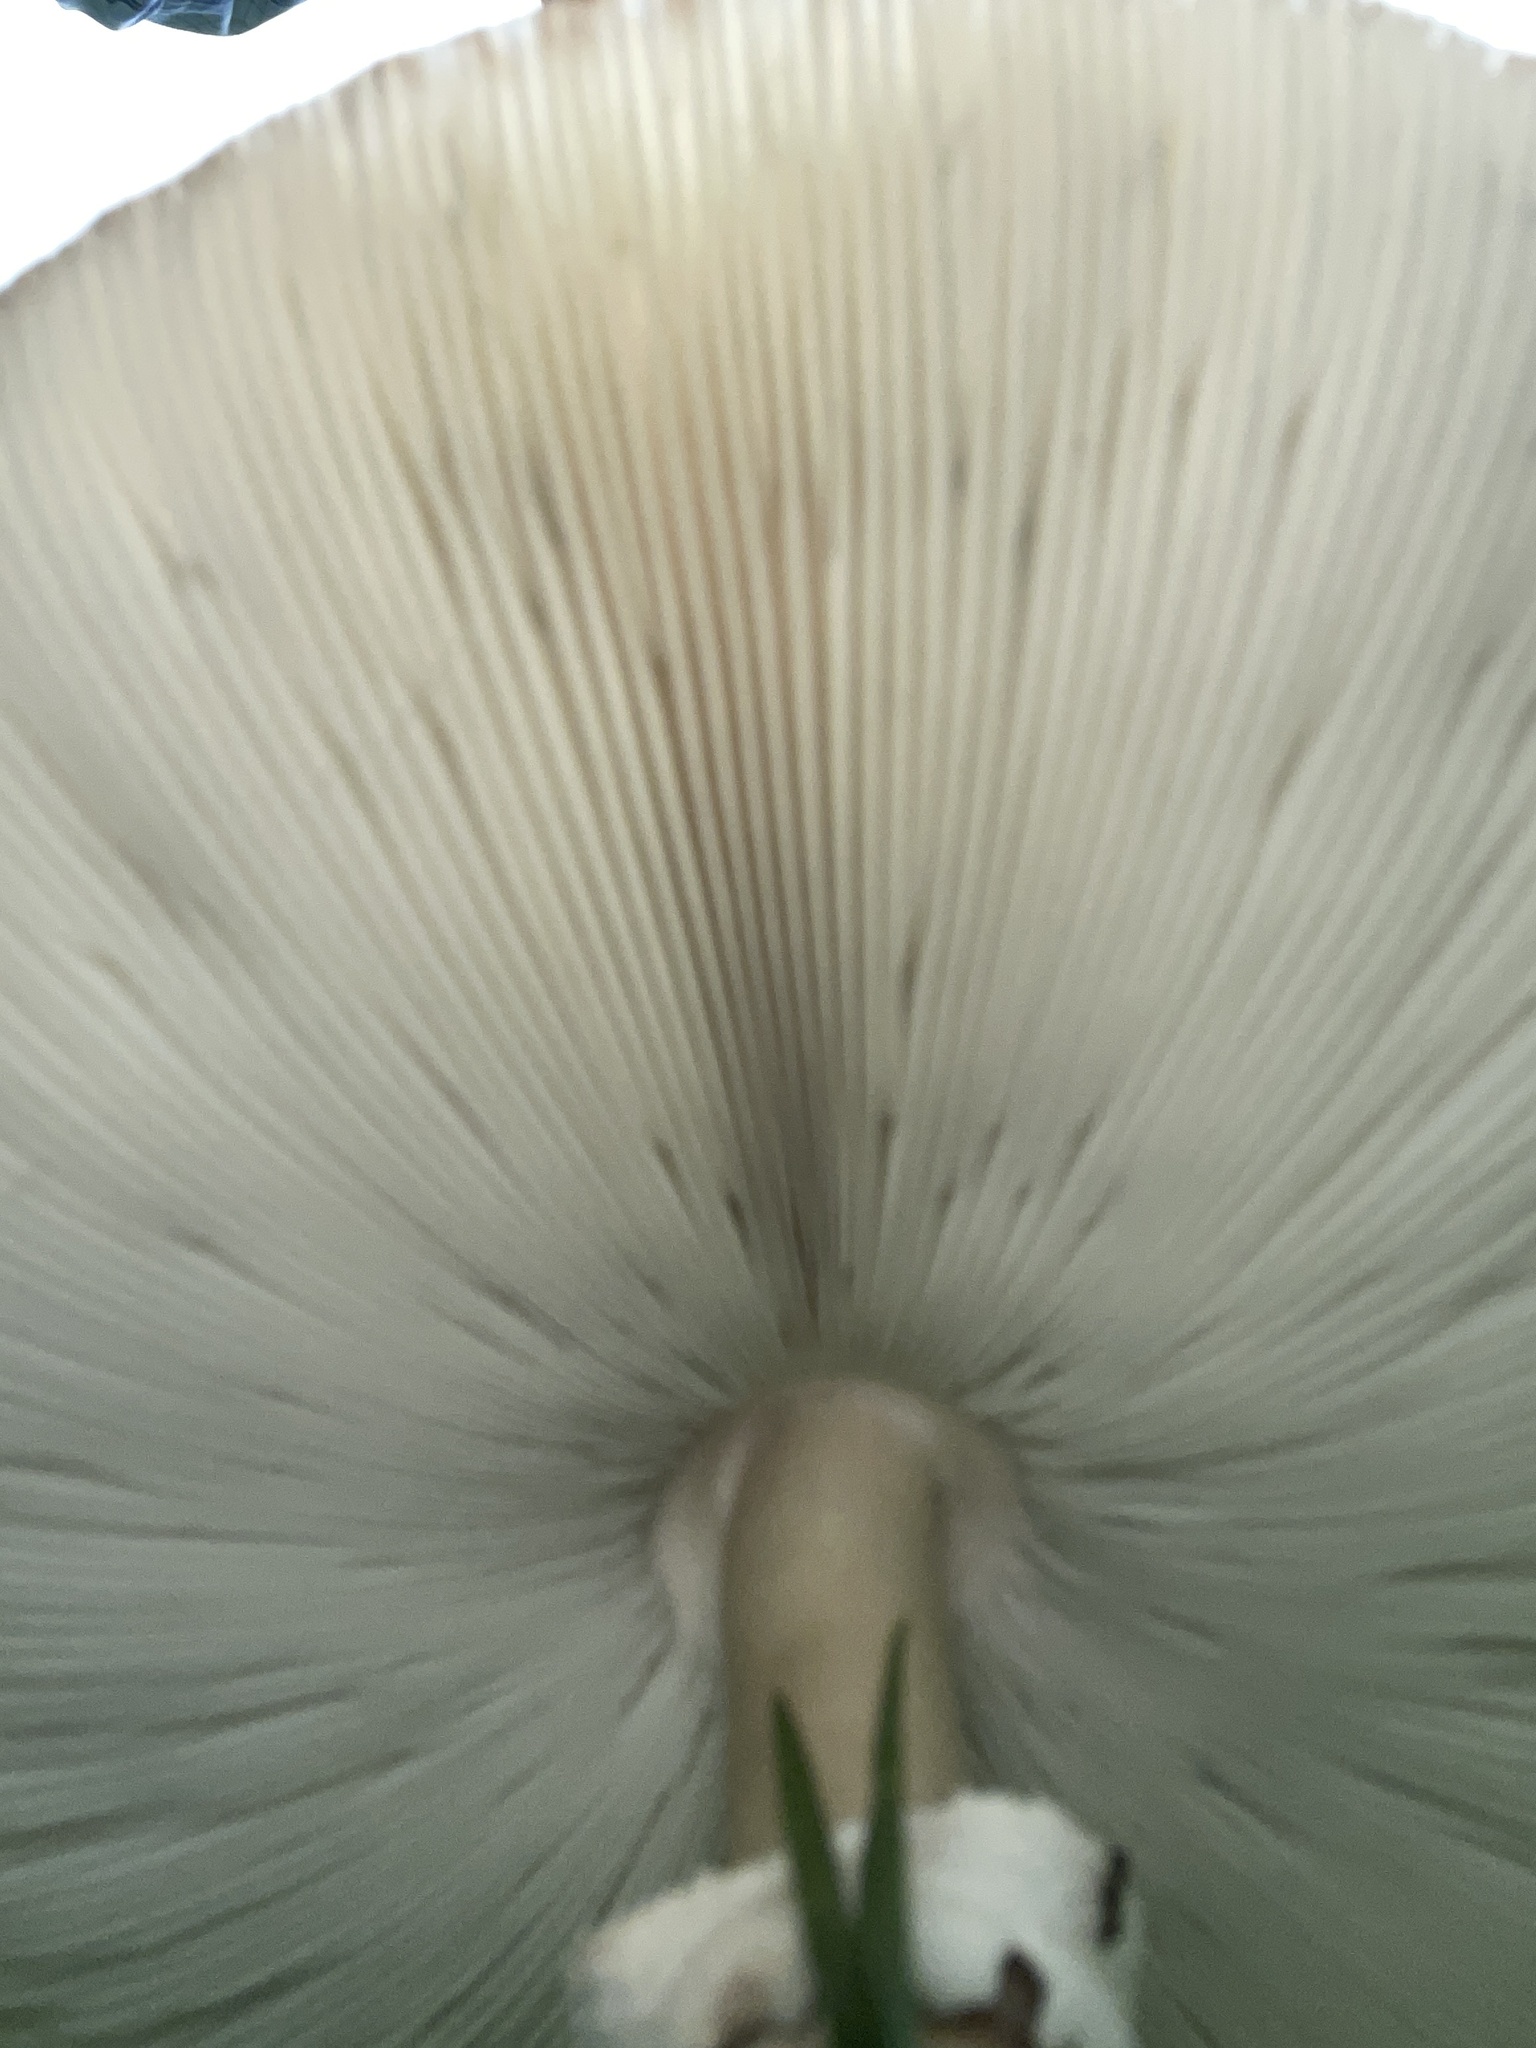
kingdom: Fungi
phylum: Basidiomycota
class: Agaricomycetes
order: Agaricales
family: Agaricaceae
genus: Chlorophyllum
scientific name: Chlorophyllum molybdites
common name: False parasol
